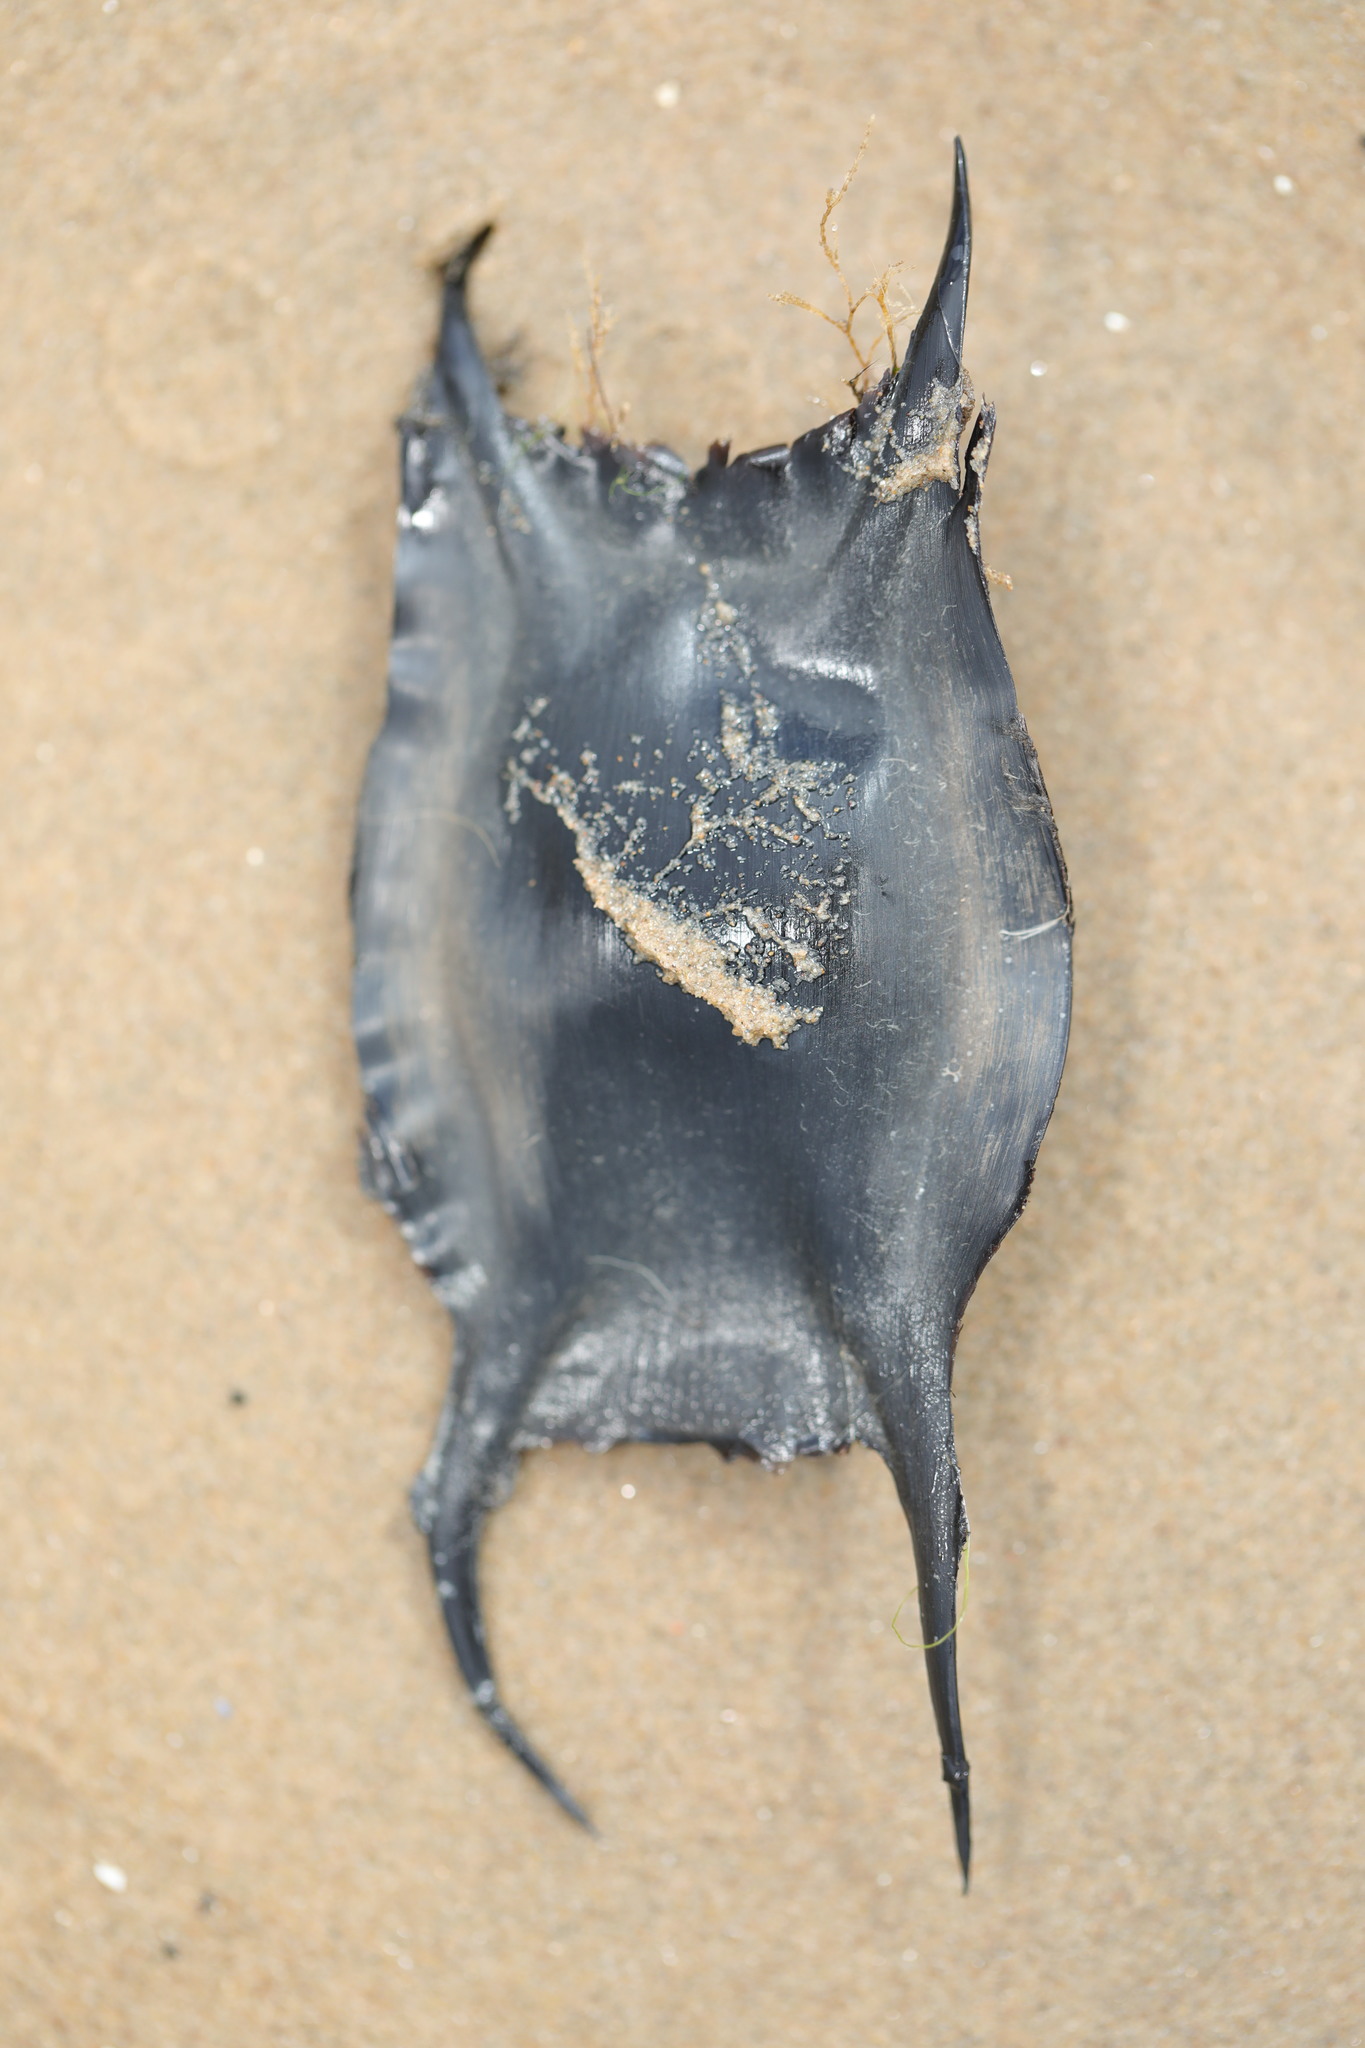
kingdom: Animalia
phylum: Chordata
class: Elasmobranchii
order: Rajiformes
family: Rajidae
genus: Raja
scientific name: Raja clavata
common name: Thornback ray
